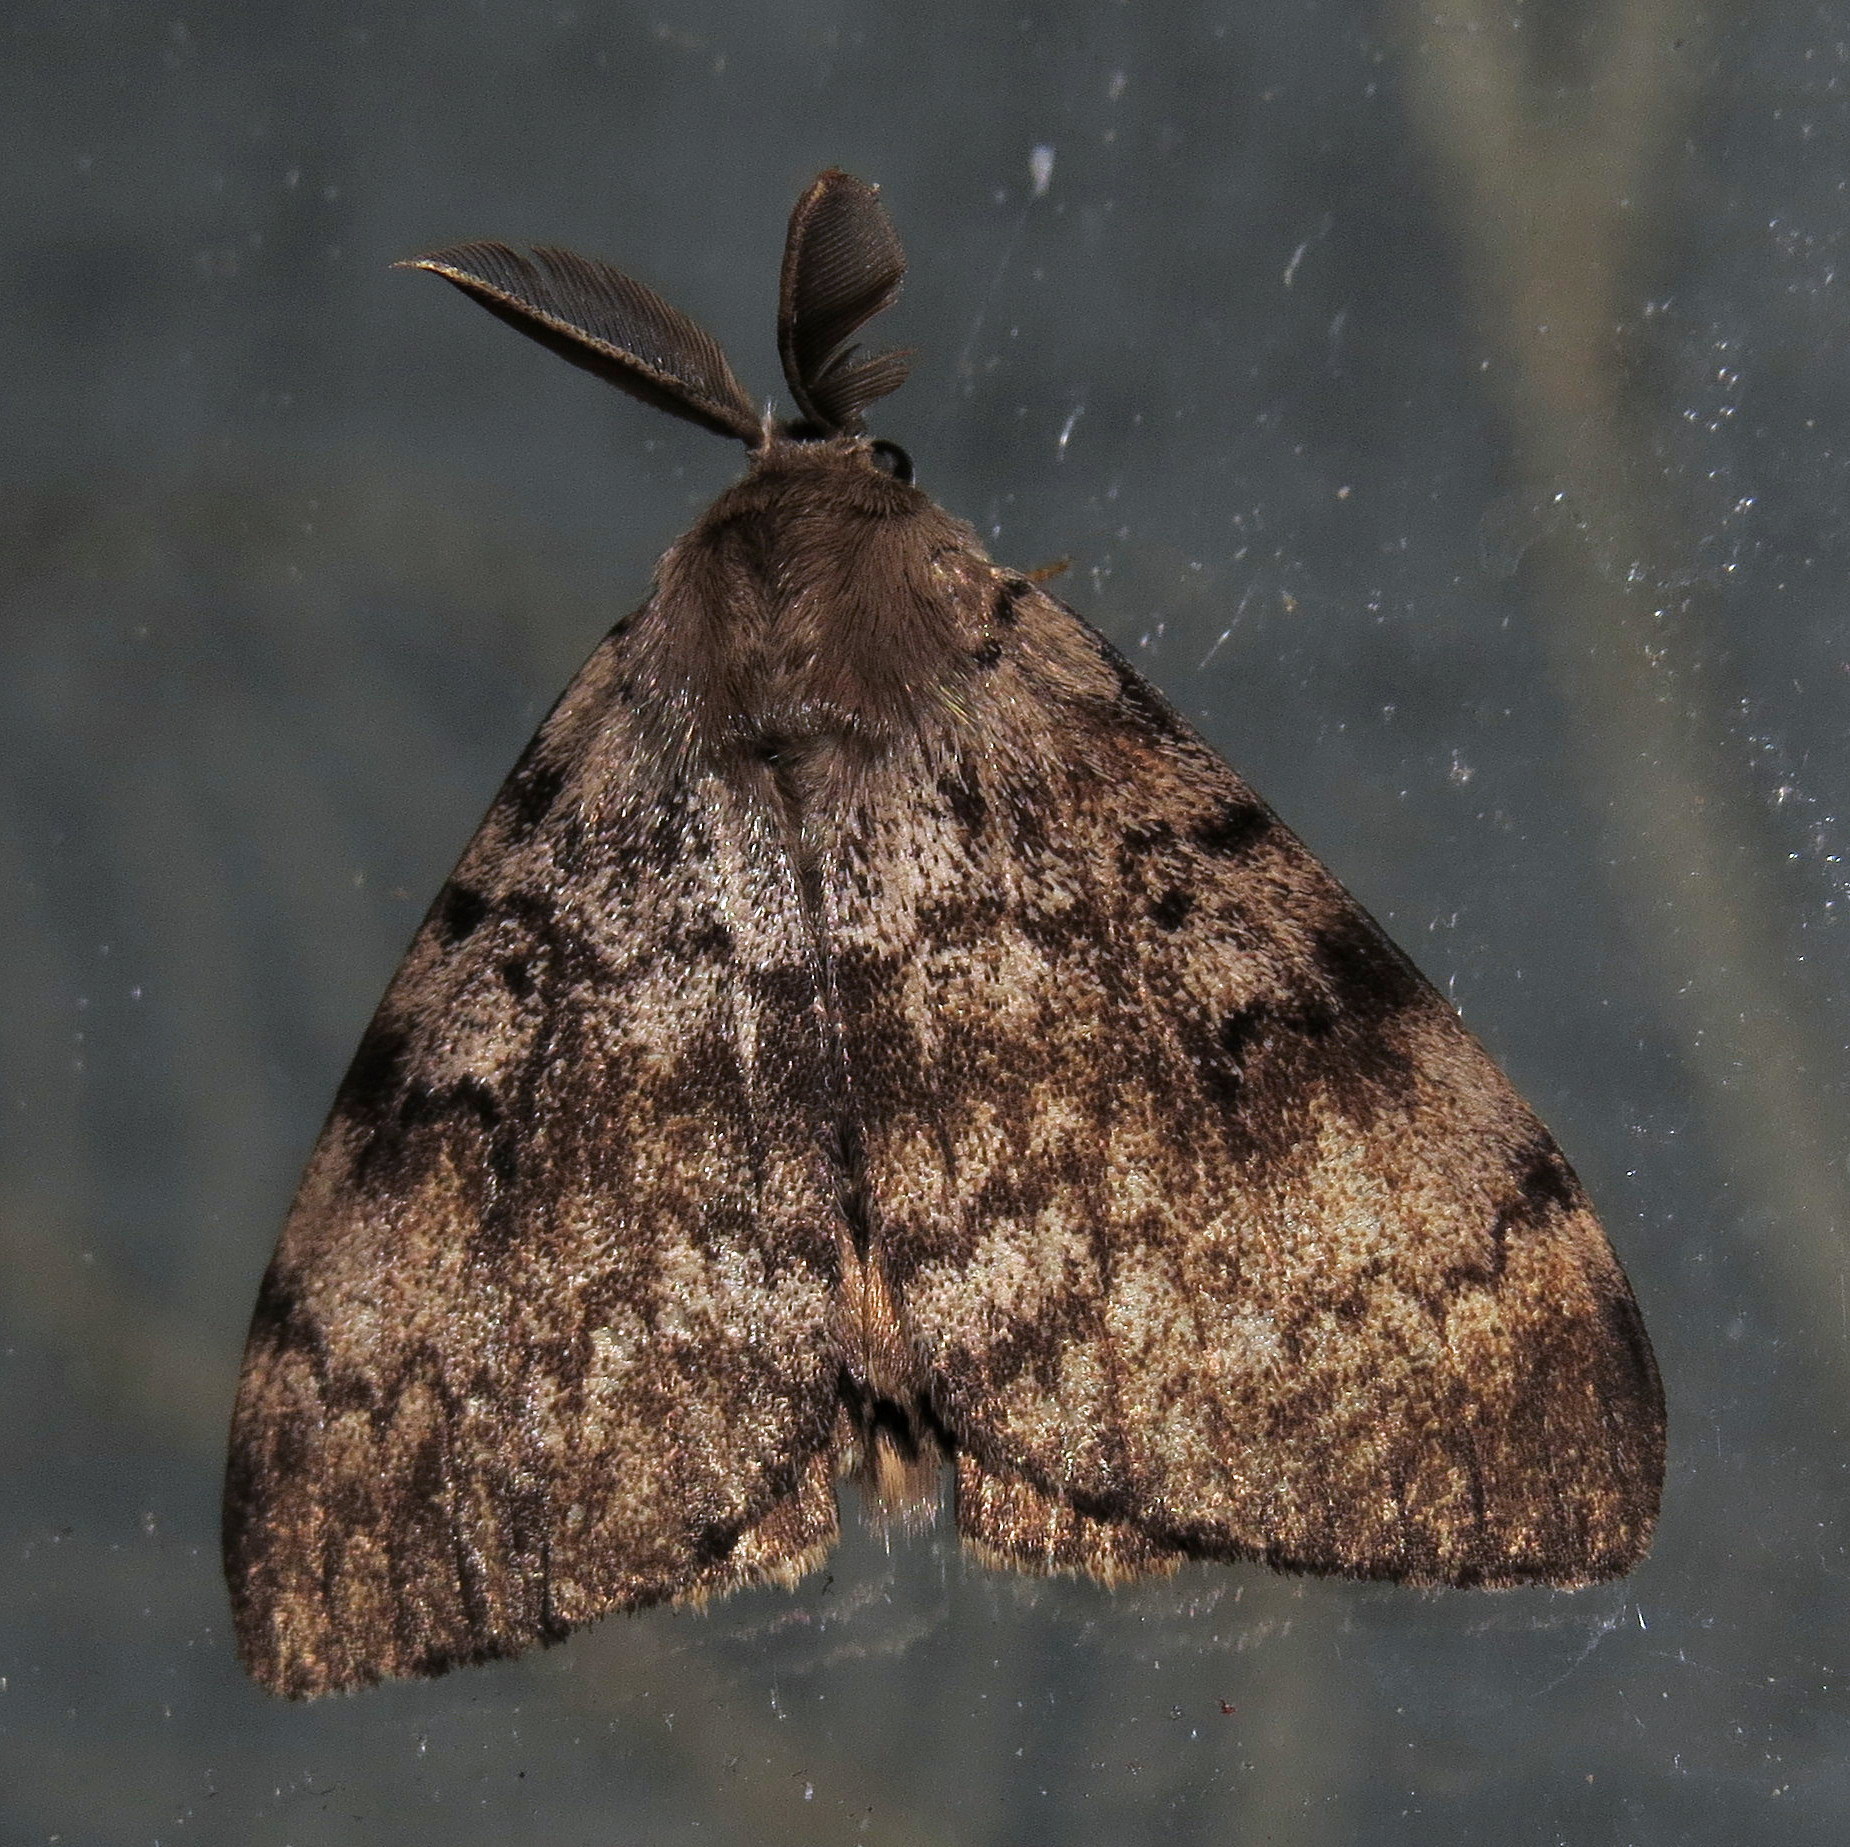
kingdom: Animalia
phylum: Arthropoda
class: Insecta
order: Lepidoptera
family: Erebidae
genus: Lymantria
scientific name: Lymantria dispar
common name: Gypsy moth
